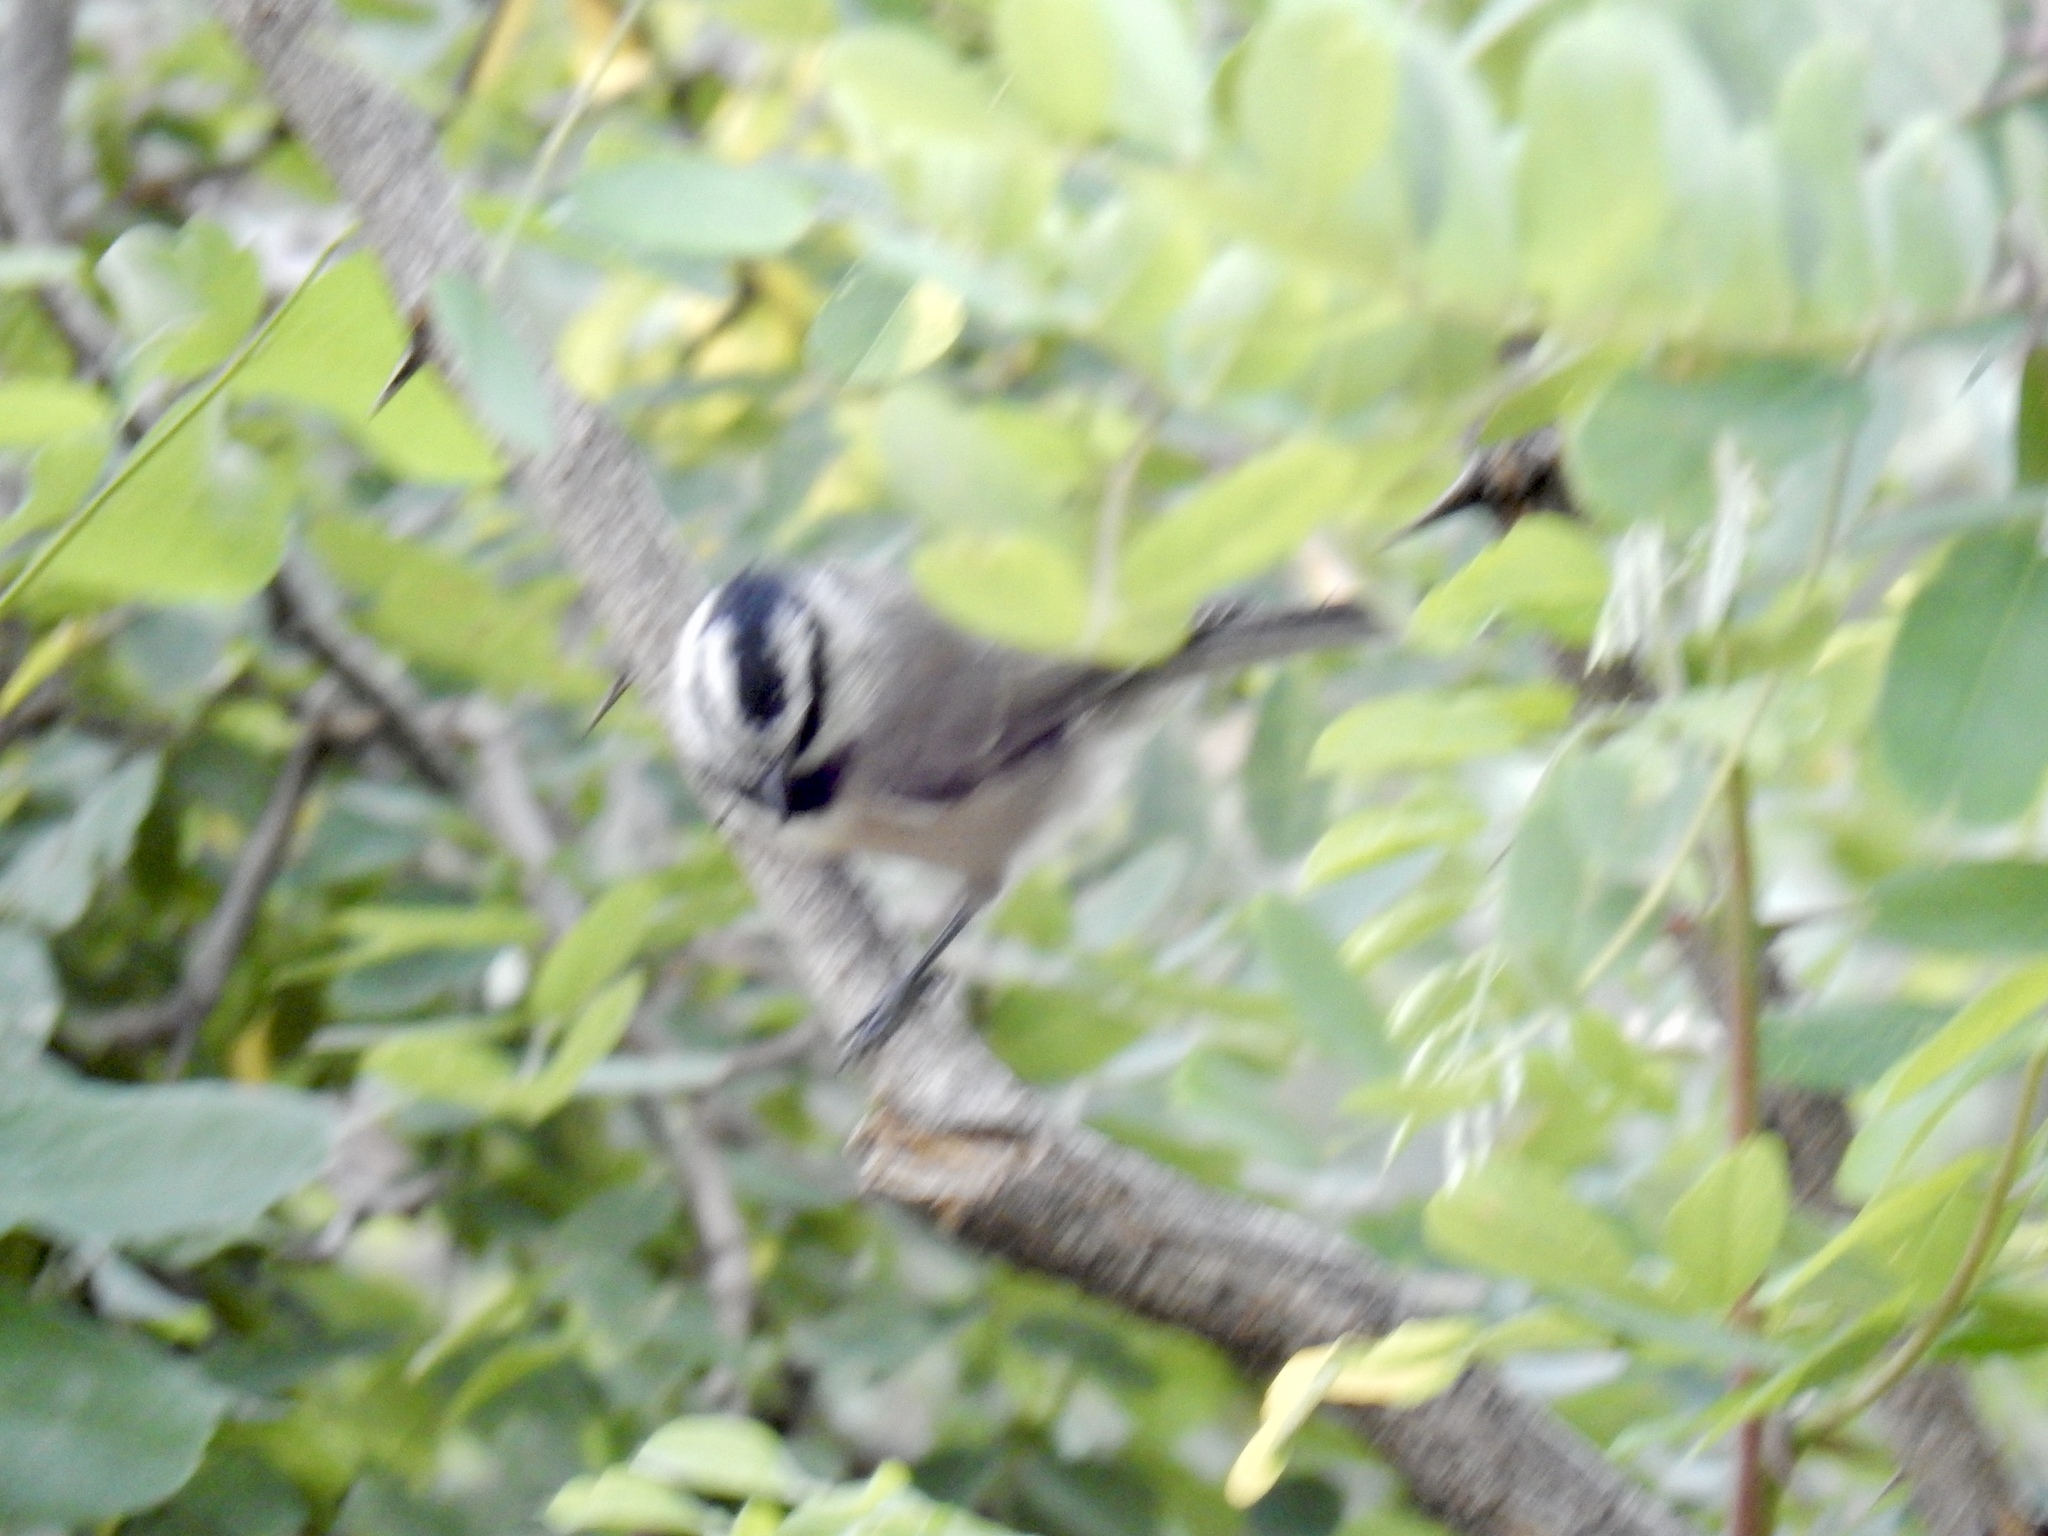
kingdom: Animalia
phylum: Chordata
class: Aves
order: Passeriformes
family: Paridae
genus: Poecile
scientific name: Poecile gambeli
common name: Mountain chickadee
